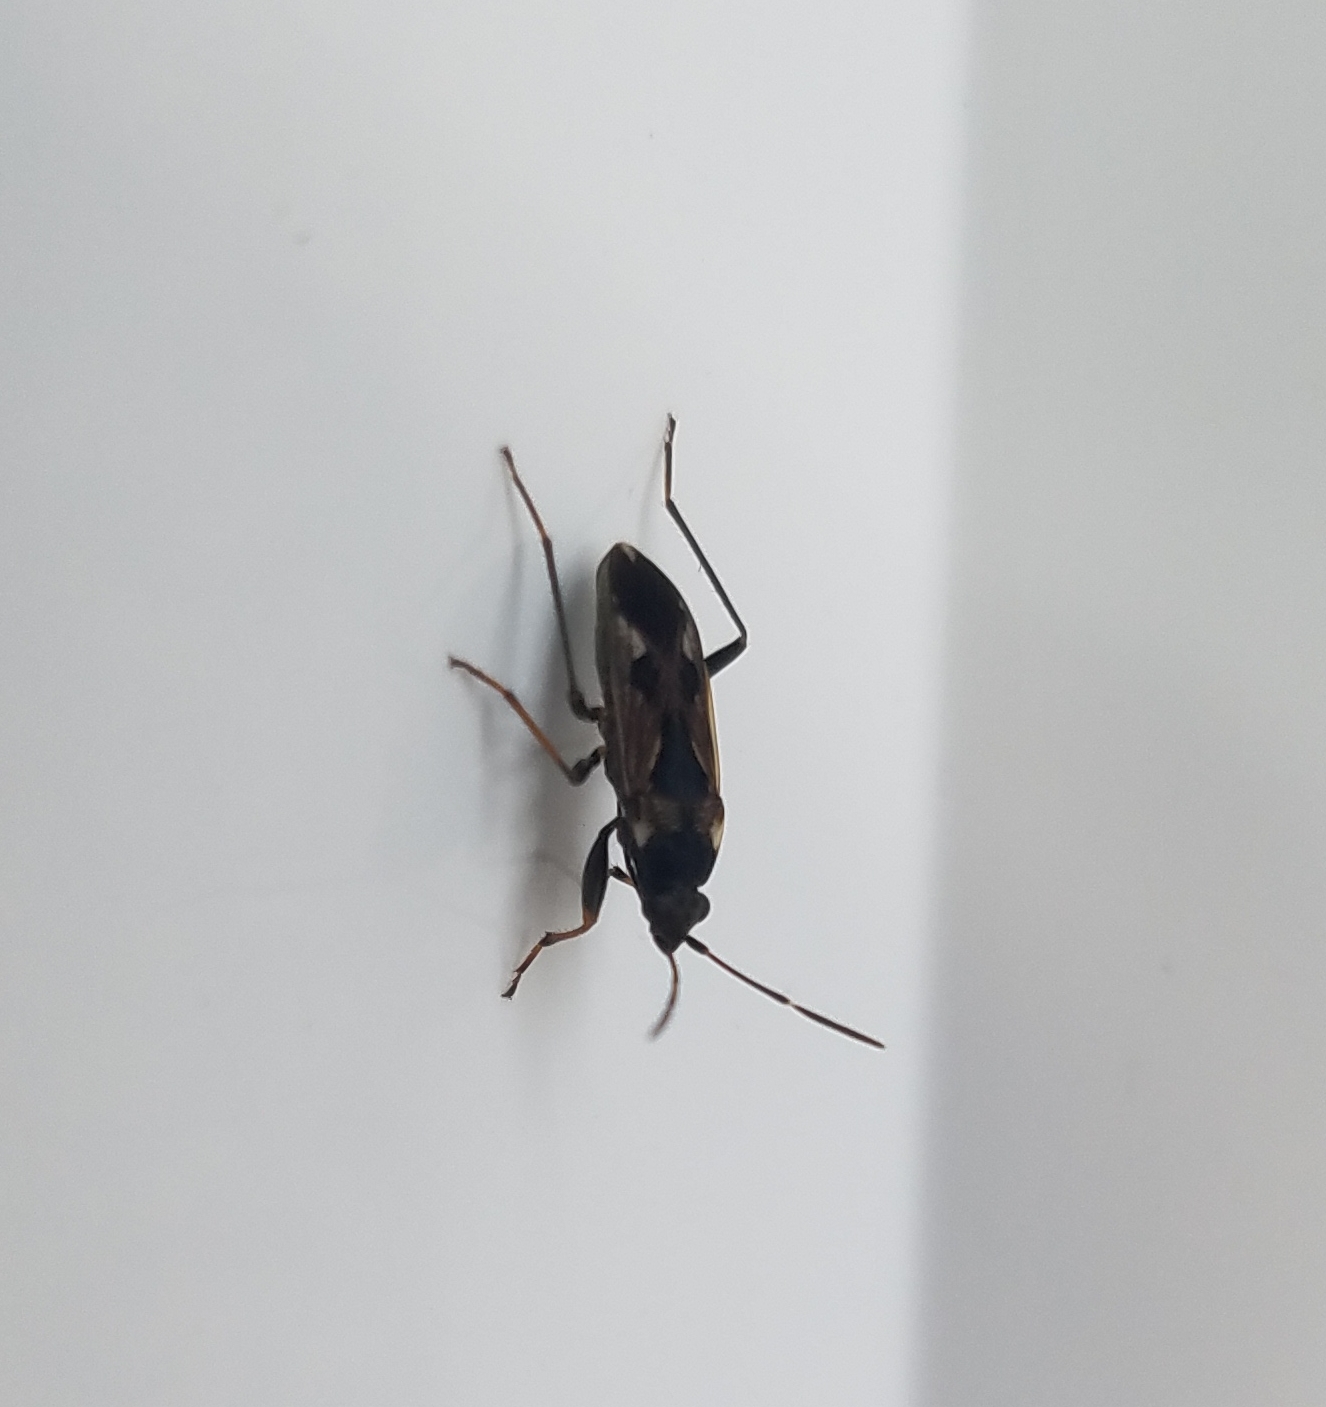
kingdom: Animalia
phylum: Arthropoda
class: Insecta
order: Hemiptera
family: Rhyparochromidae
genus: Rhyparochromus
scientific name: Rhyparochromus vulgaris
